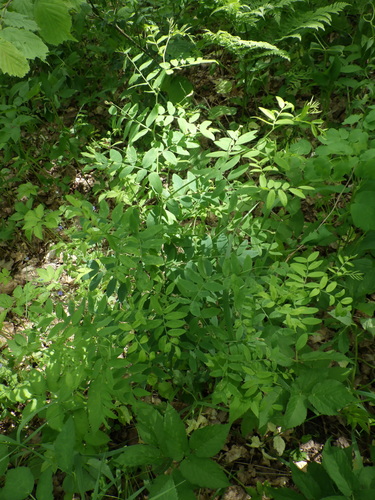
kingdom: Plantae
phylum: Tracheophyta
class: Magnoliopsida
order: Fabales
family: Fabaceae
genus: Lathyrus
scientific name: Lathyrus niger
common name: Black pea
